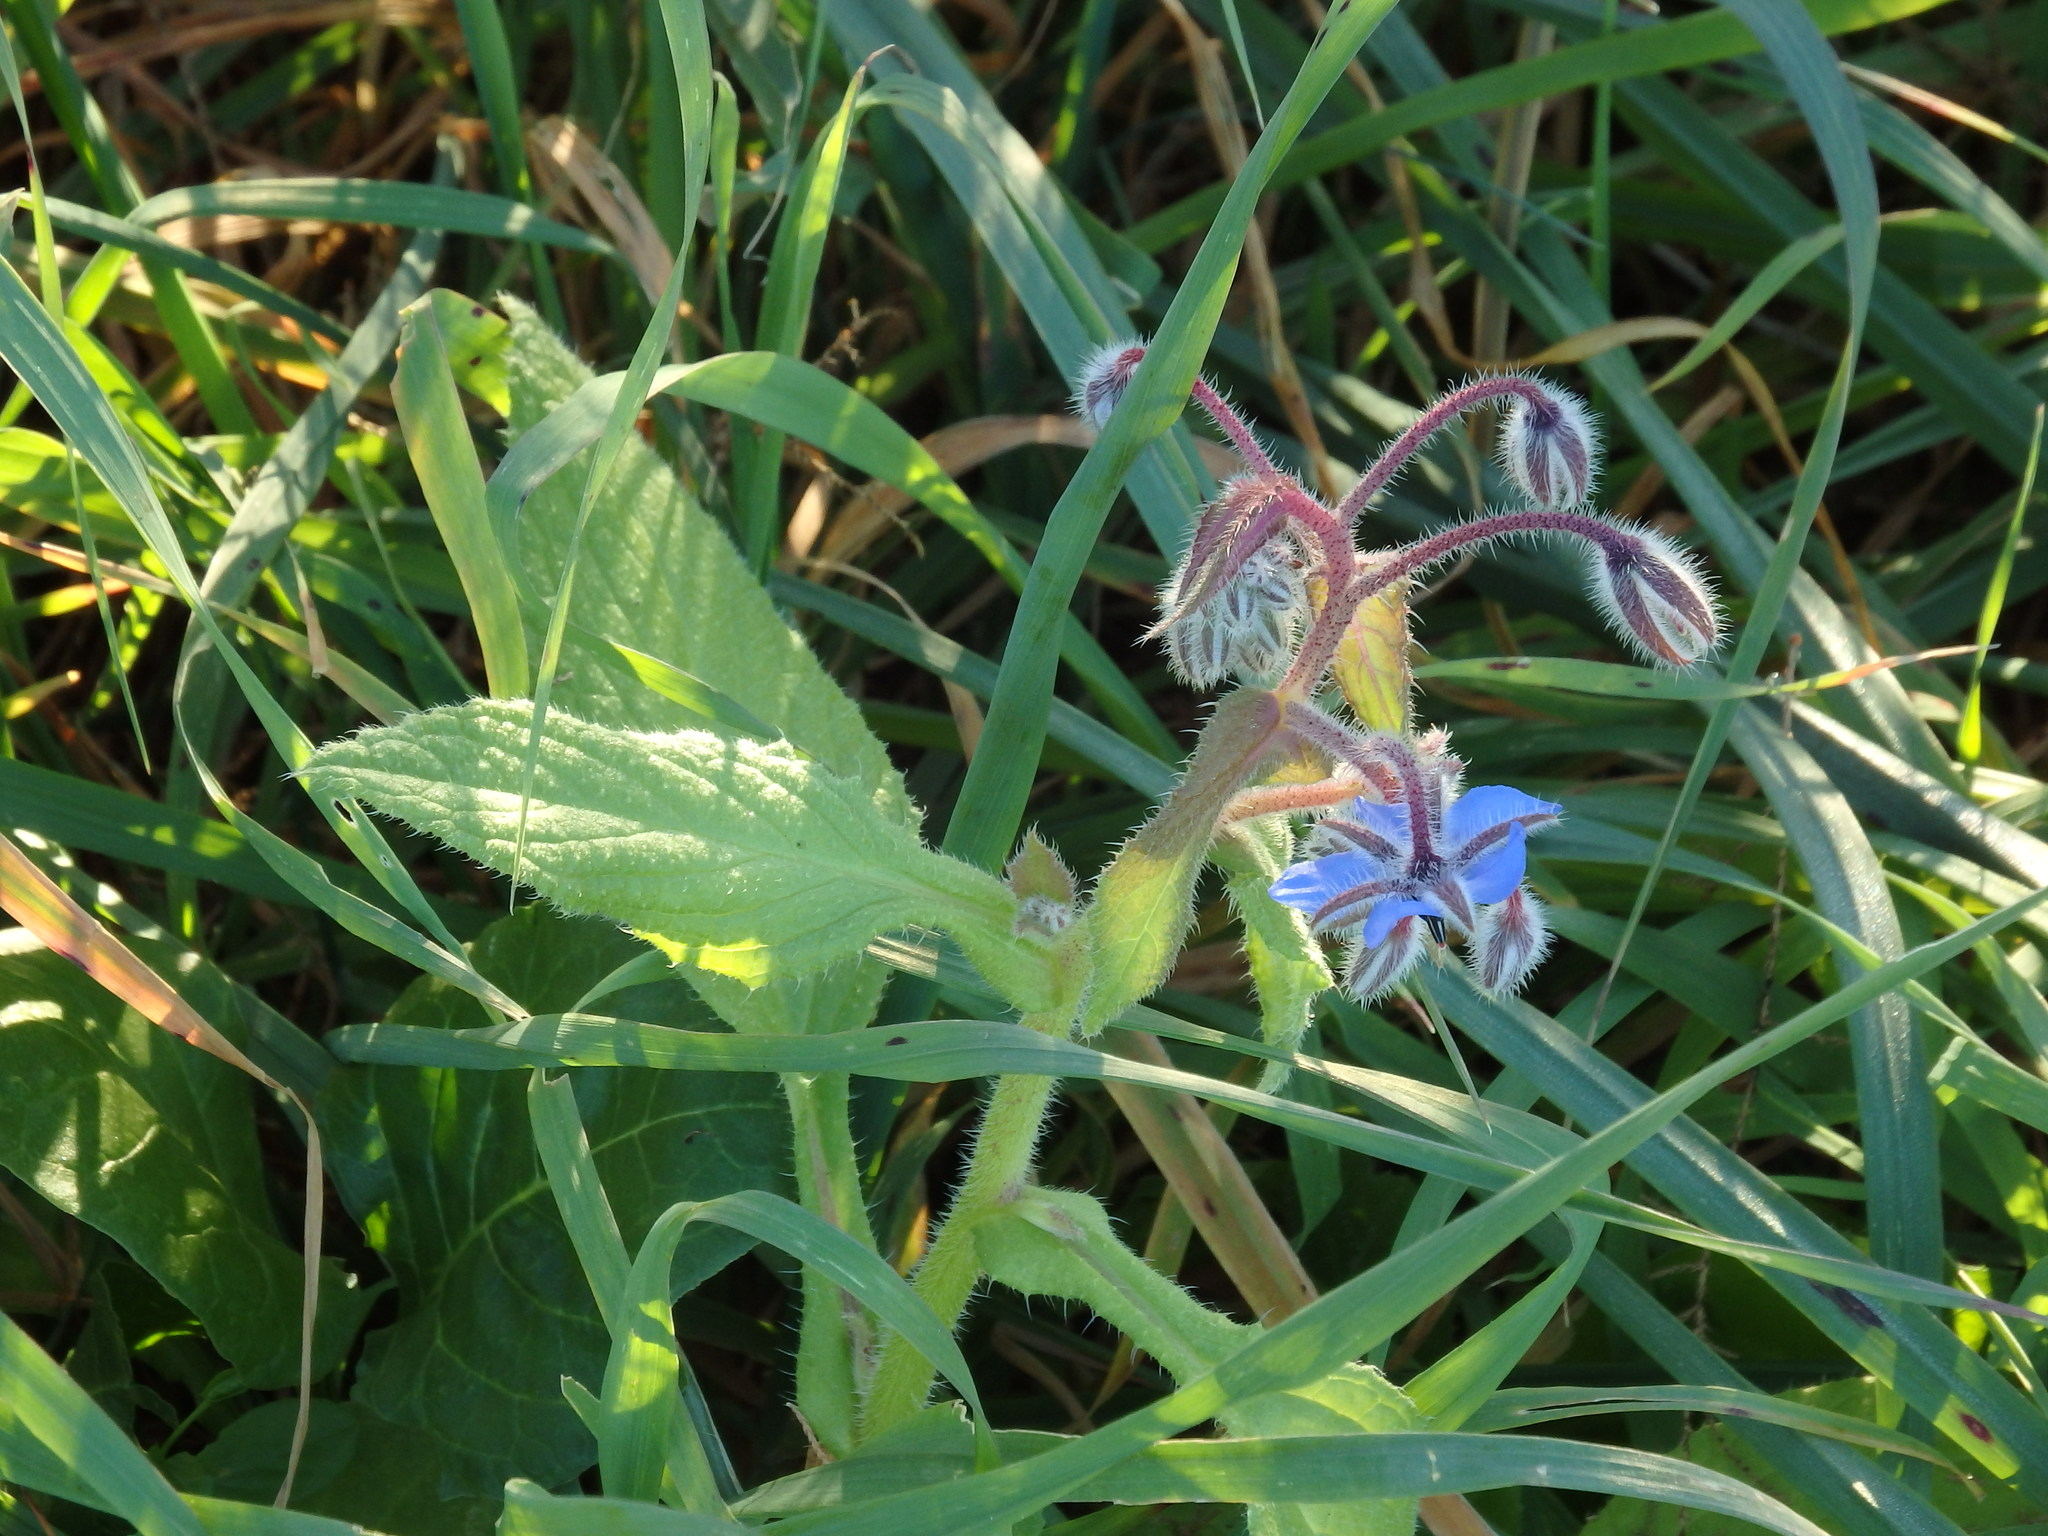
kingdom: Plantae
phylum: Tracheophyta
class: Magnoliopsida
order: Boraginales
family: Boraginaceae
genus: Borago
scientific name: Borago officinalis
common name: Borage
